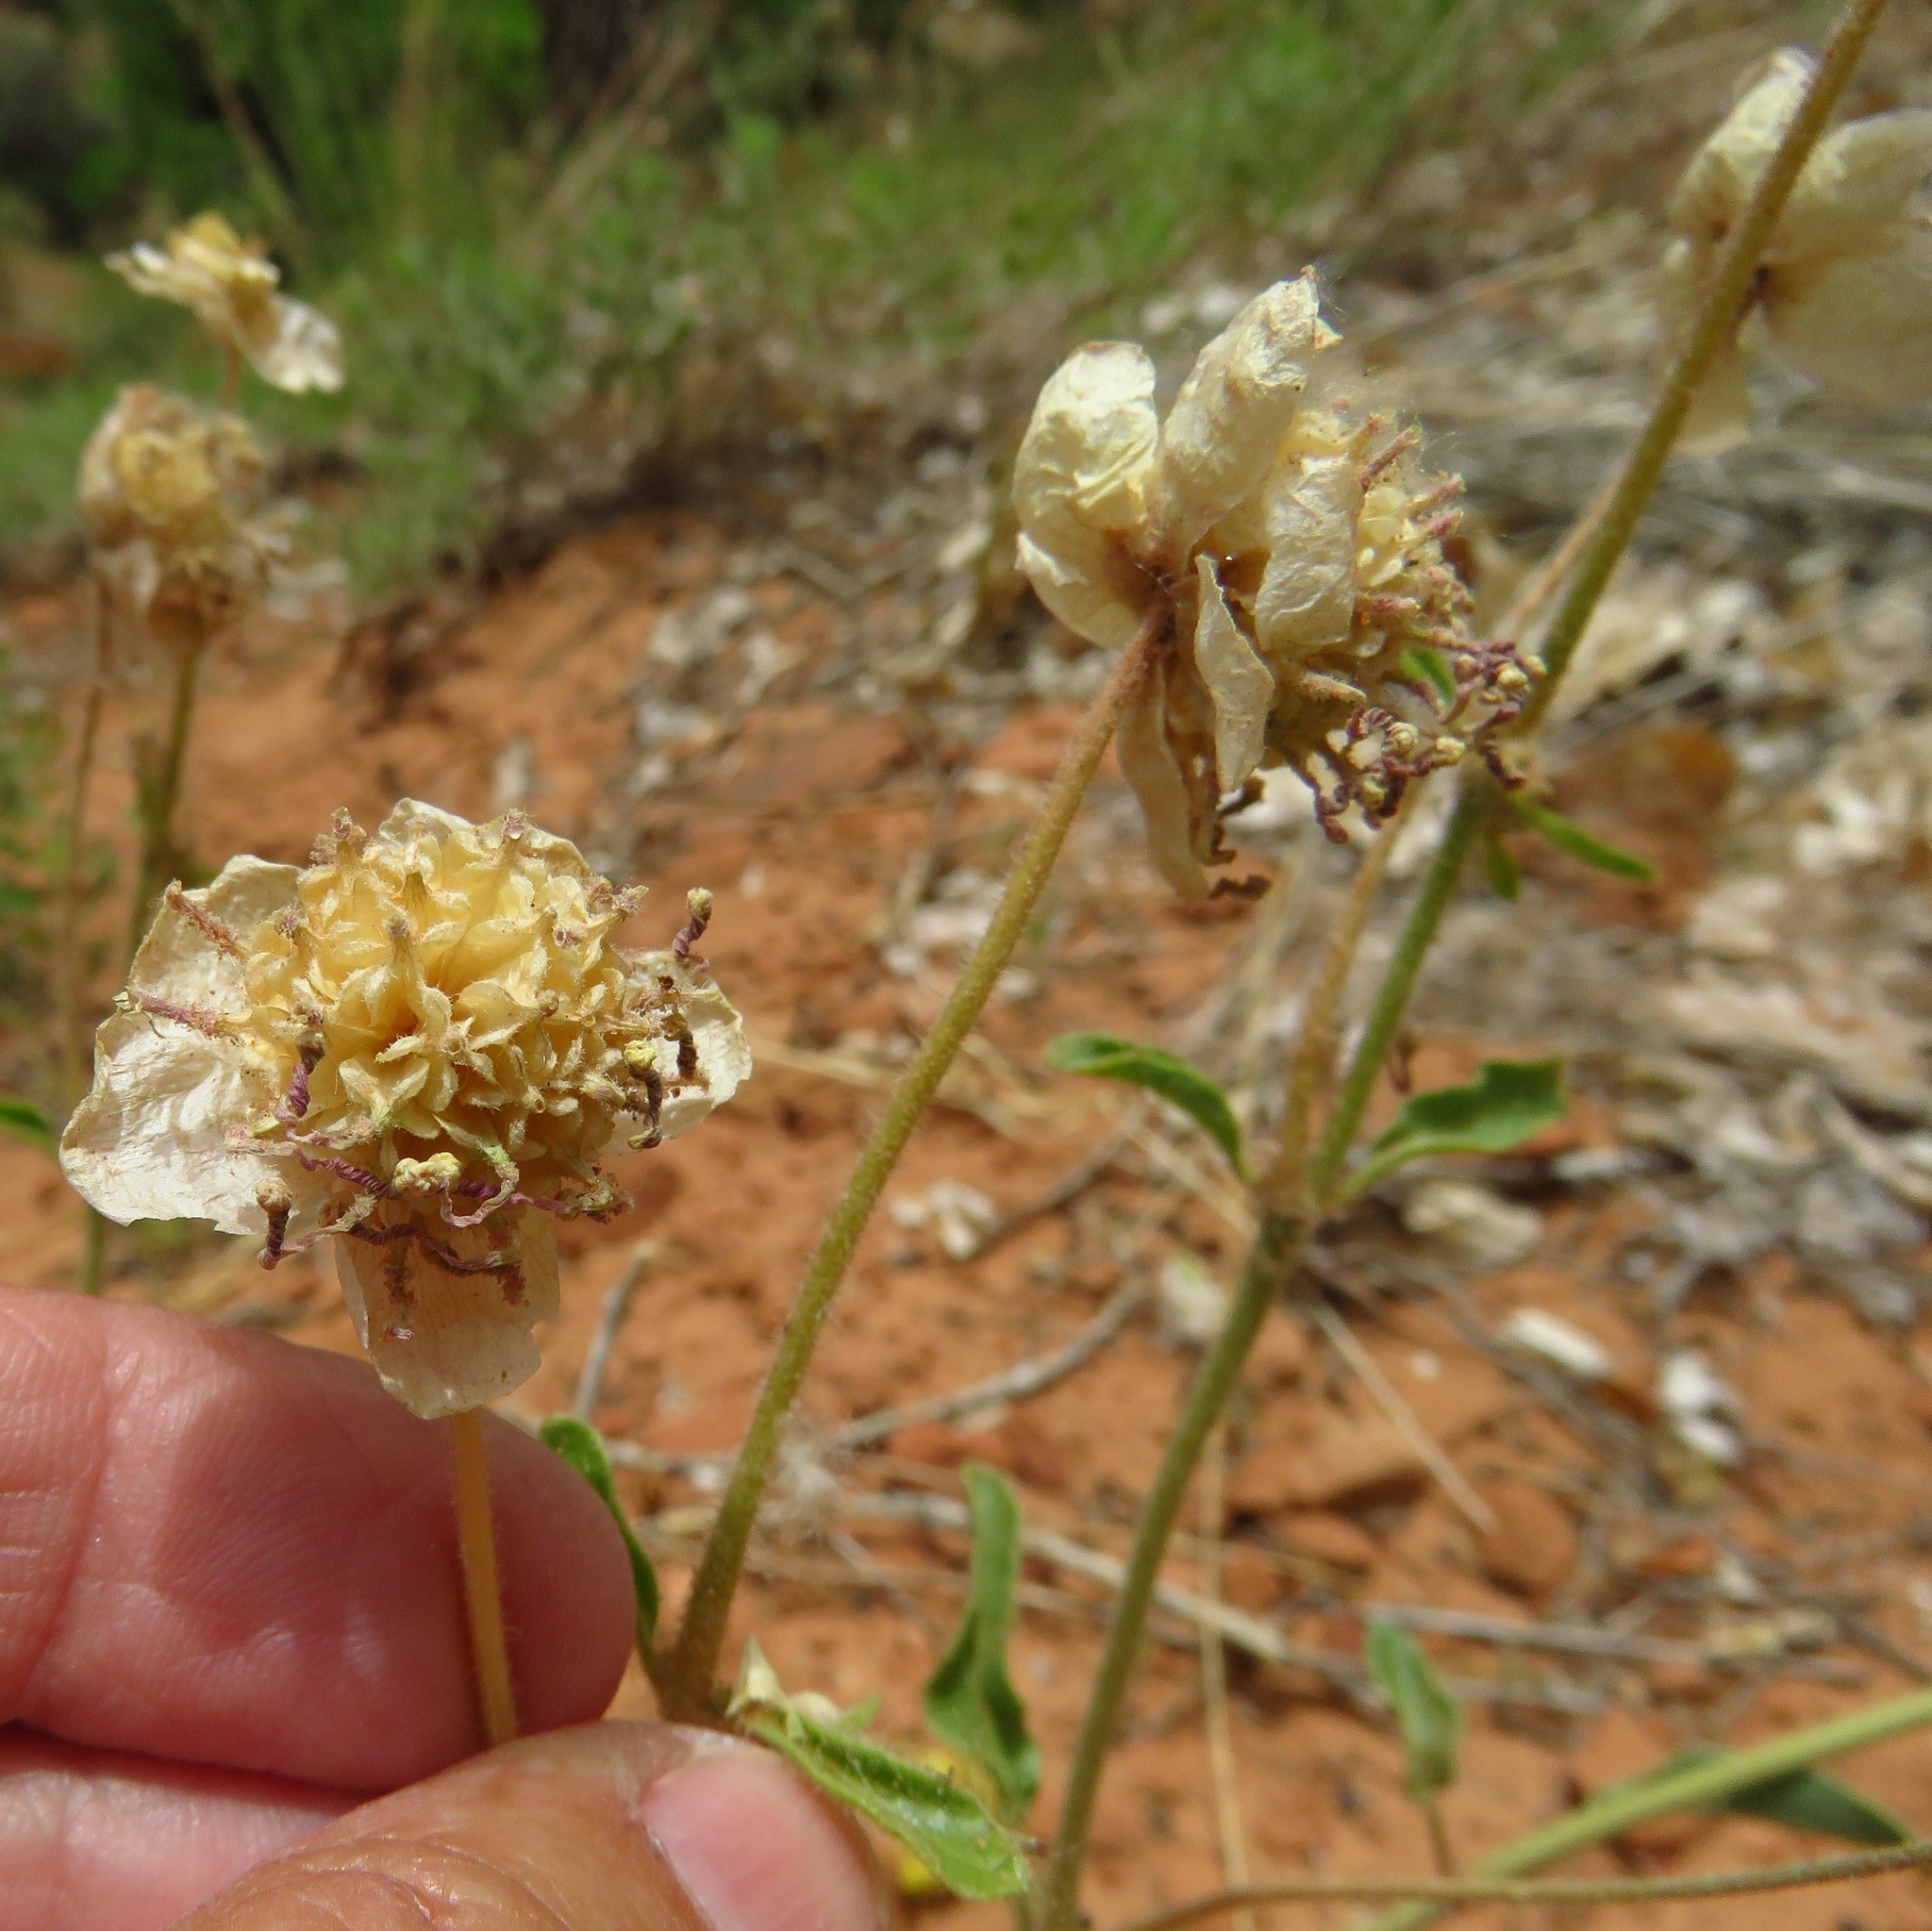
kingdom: Plantae
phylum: Tracheophyta
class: Magnoliopsida
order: Caryophyllales
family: Nyctaginaceae
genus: Abronia
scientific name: Abronia elliptica
